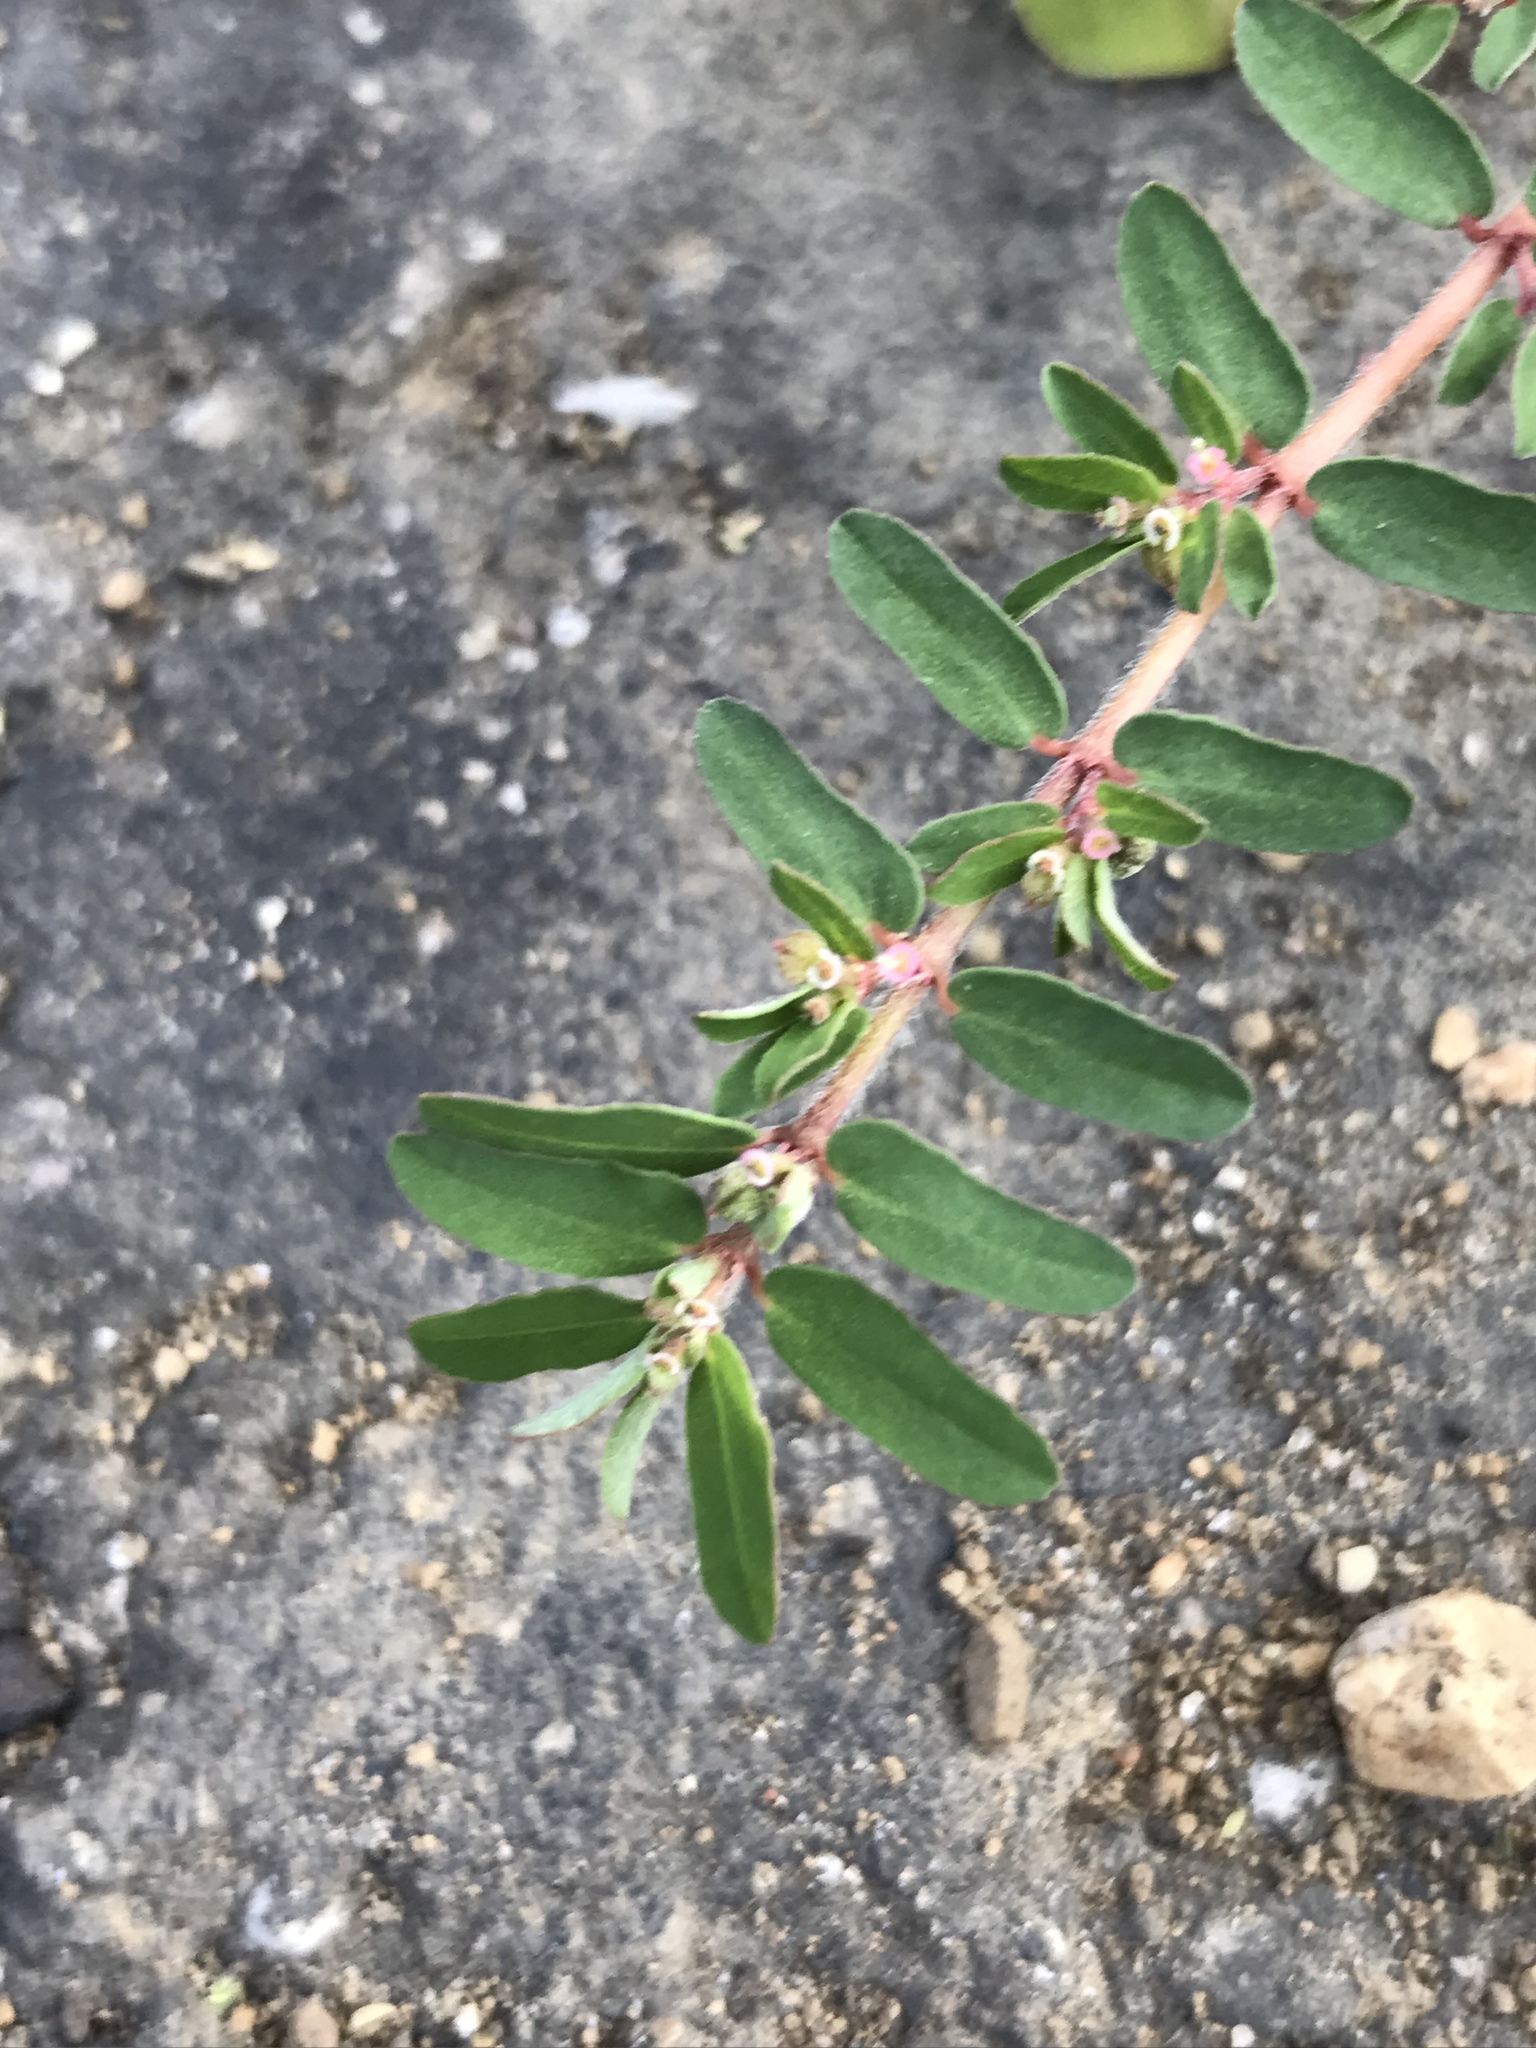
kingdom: Plantae
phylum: Tracheophyta
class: Magnoliopsida
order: Malpighiales
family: Euphorbiaceae
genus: Euphorbia
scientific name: Euphorbia maculata
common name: Spotted spurge
